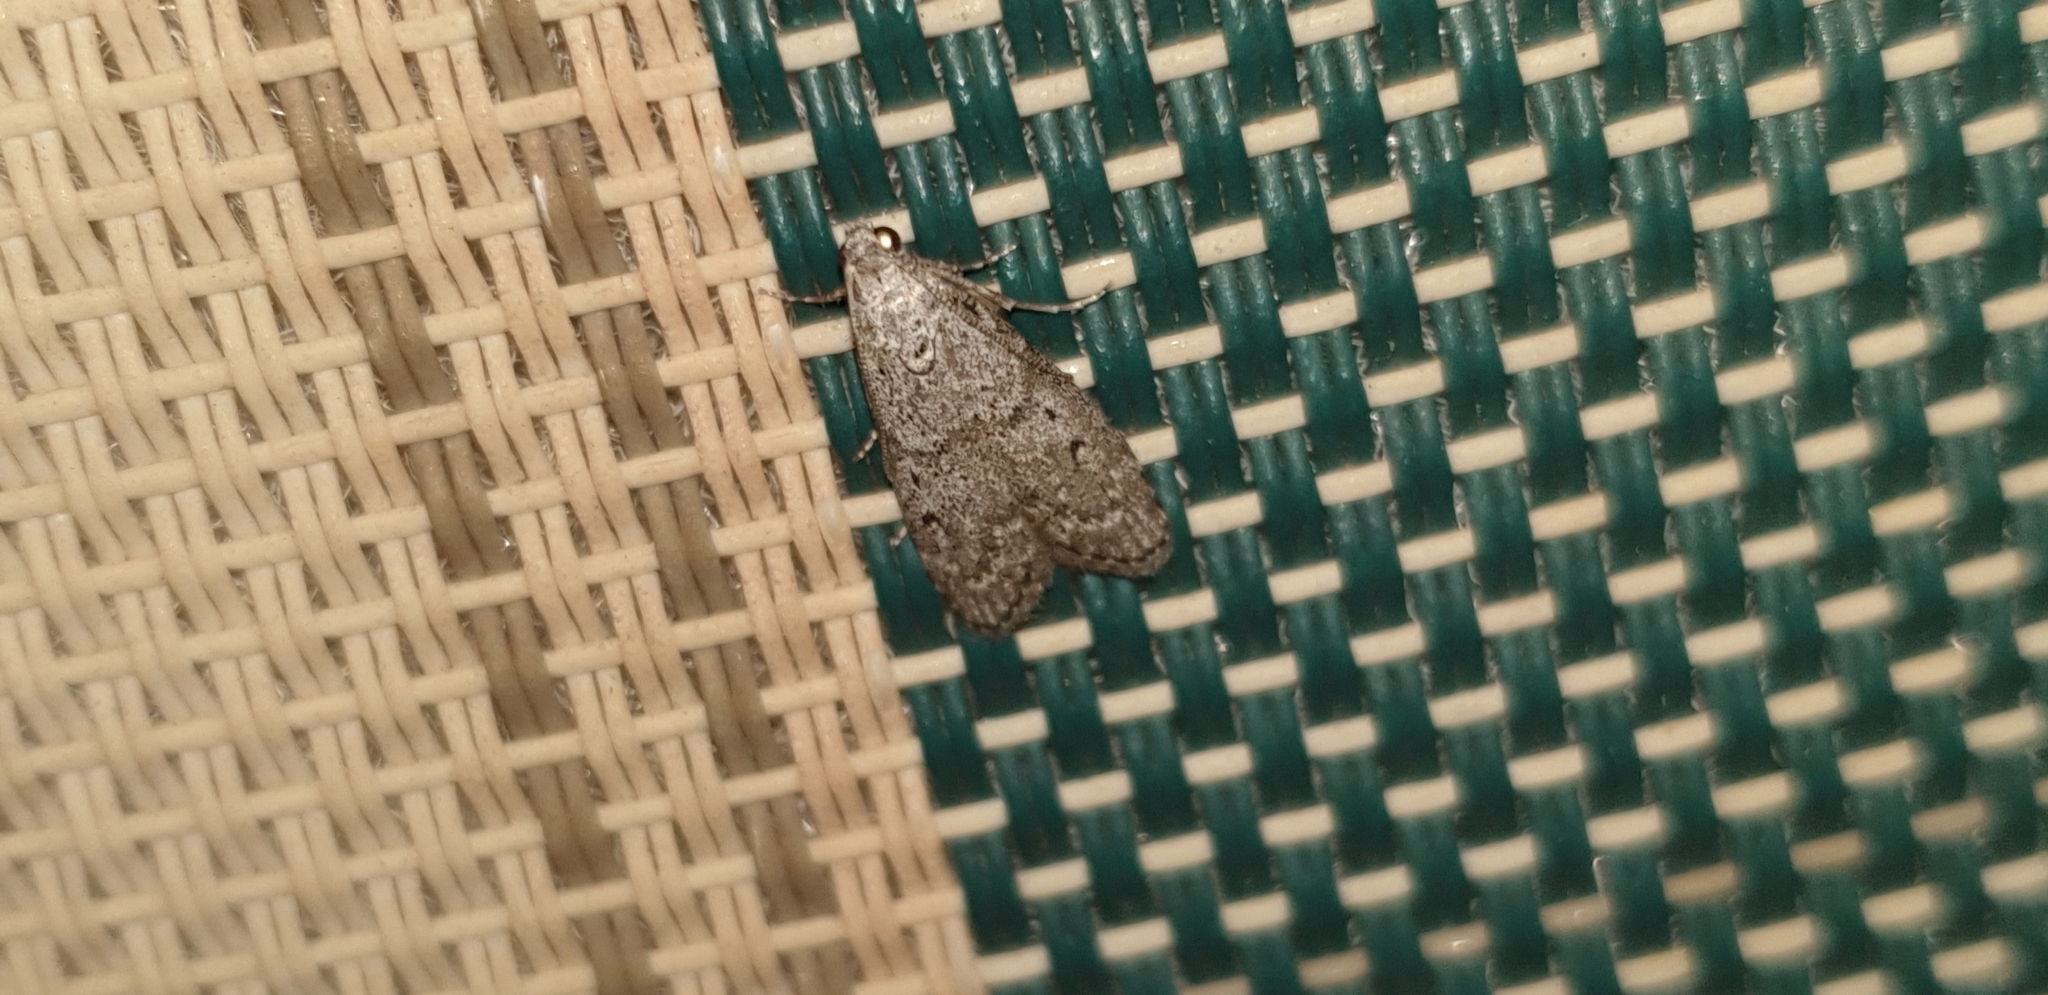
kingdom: Animalia
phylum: Arthropoda
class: Insecta
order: Lepidoptera
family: Pyralidae
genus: Heteromicta
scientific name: Heteromicta pachytera
